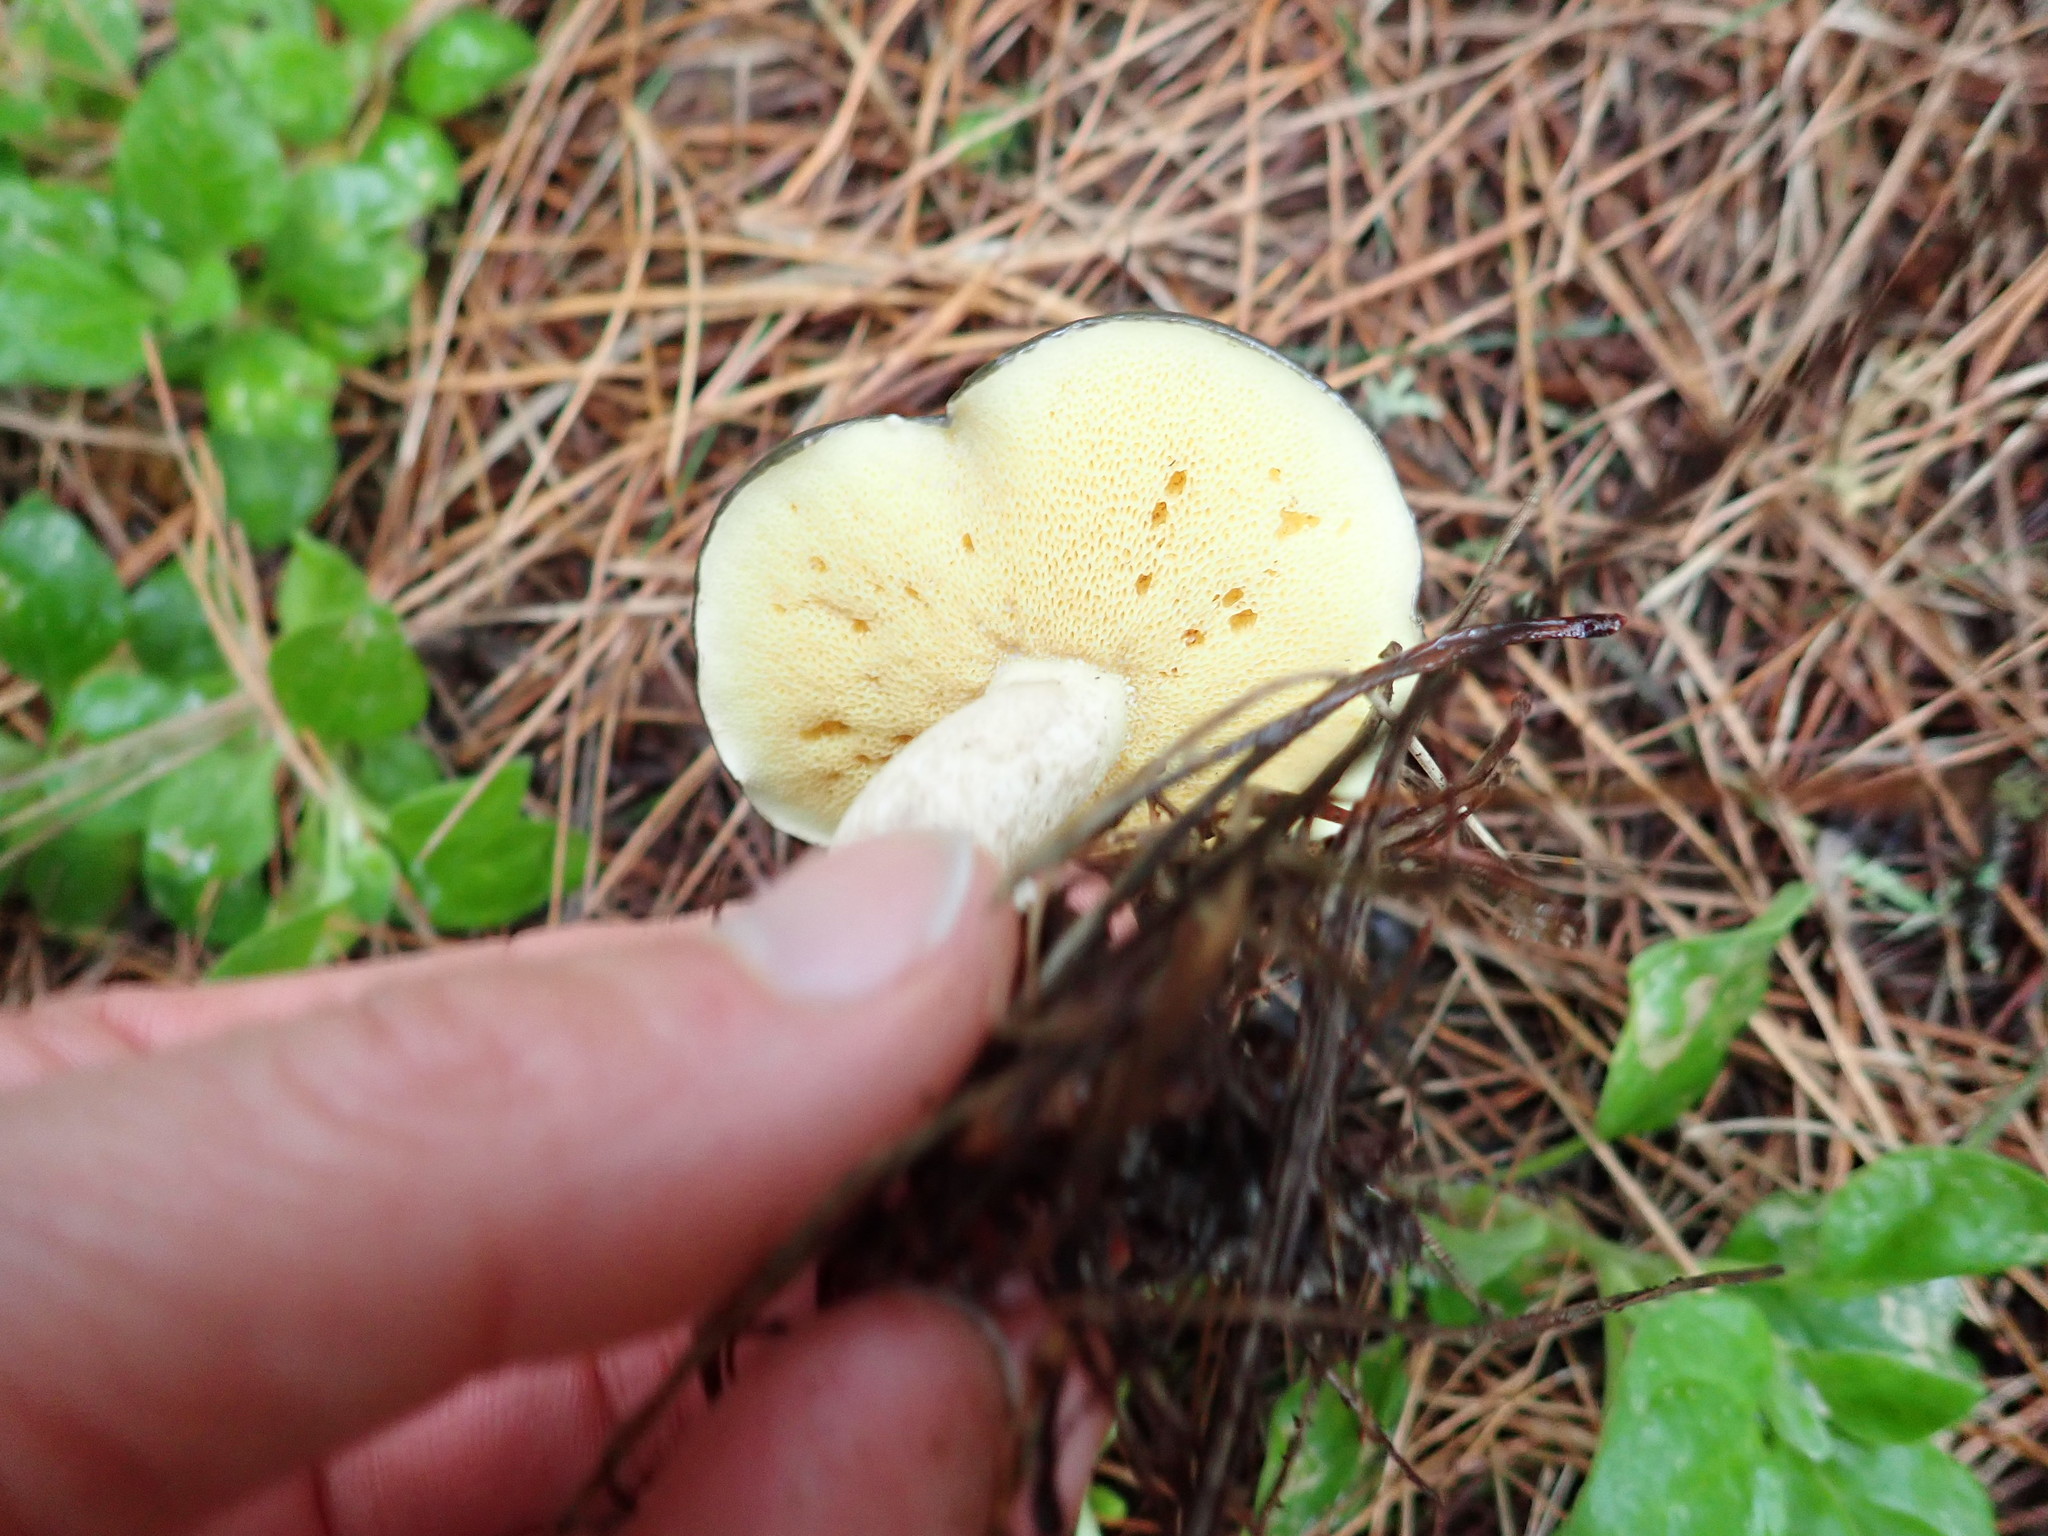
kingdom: Fungi
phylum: Basidiomycota
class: Agaricomycetes
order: Boletales
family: Suillaceae
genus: Suillus
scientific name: Suillus pungens
